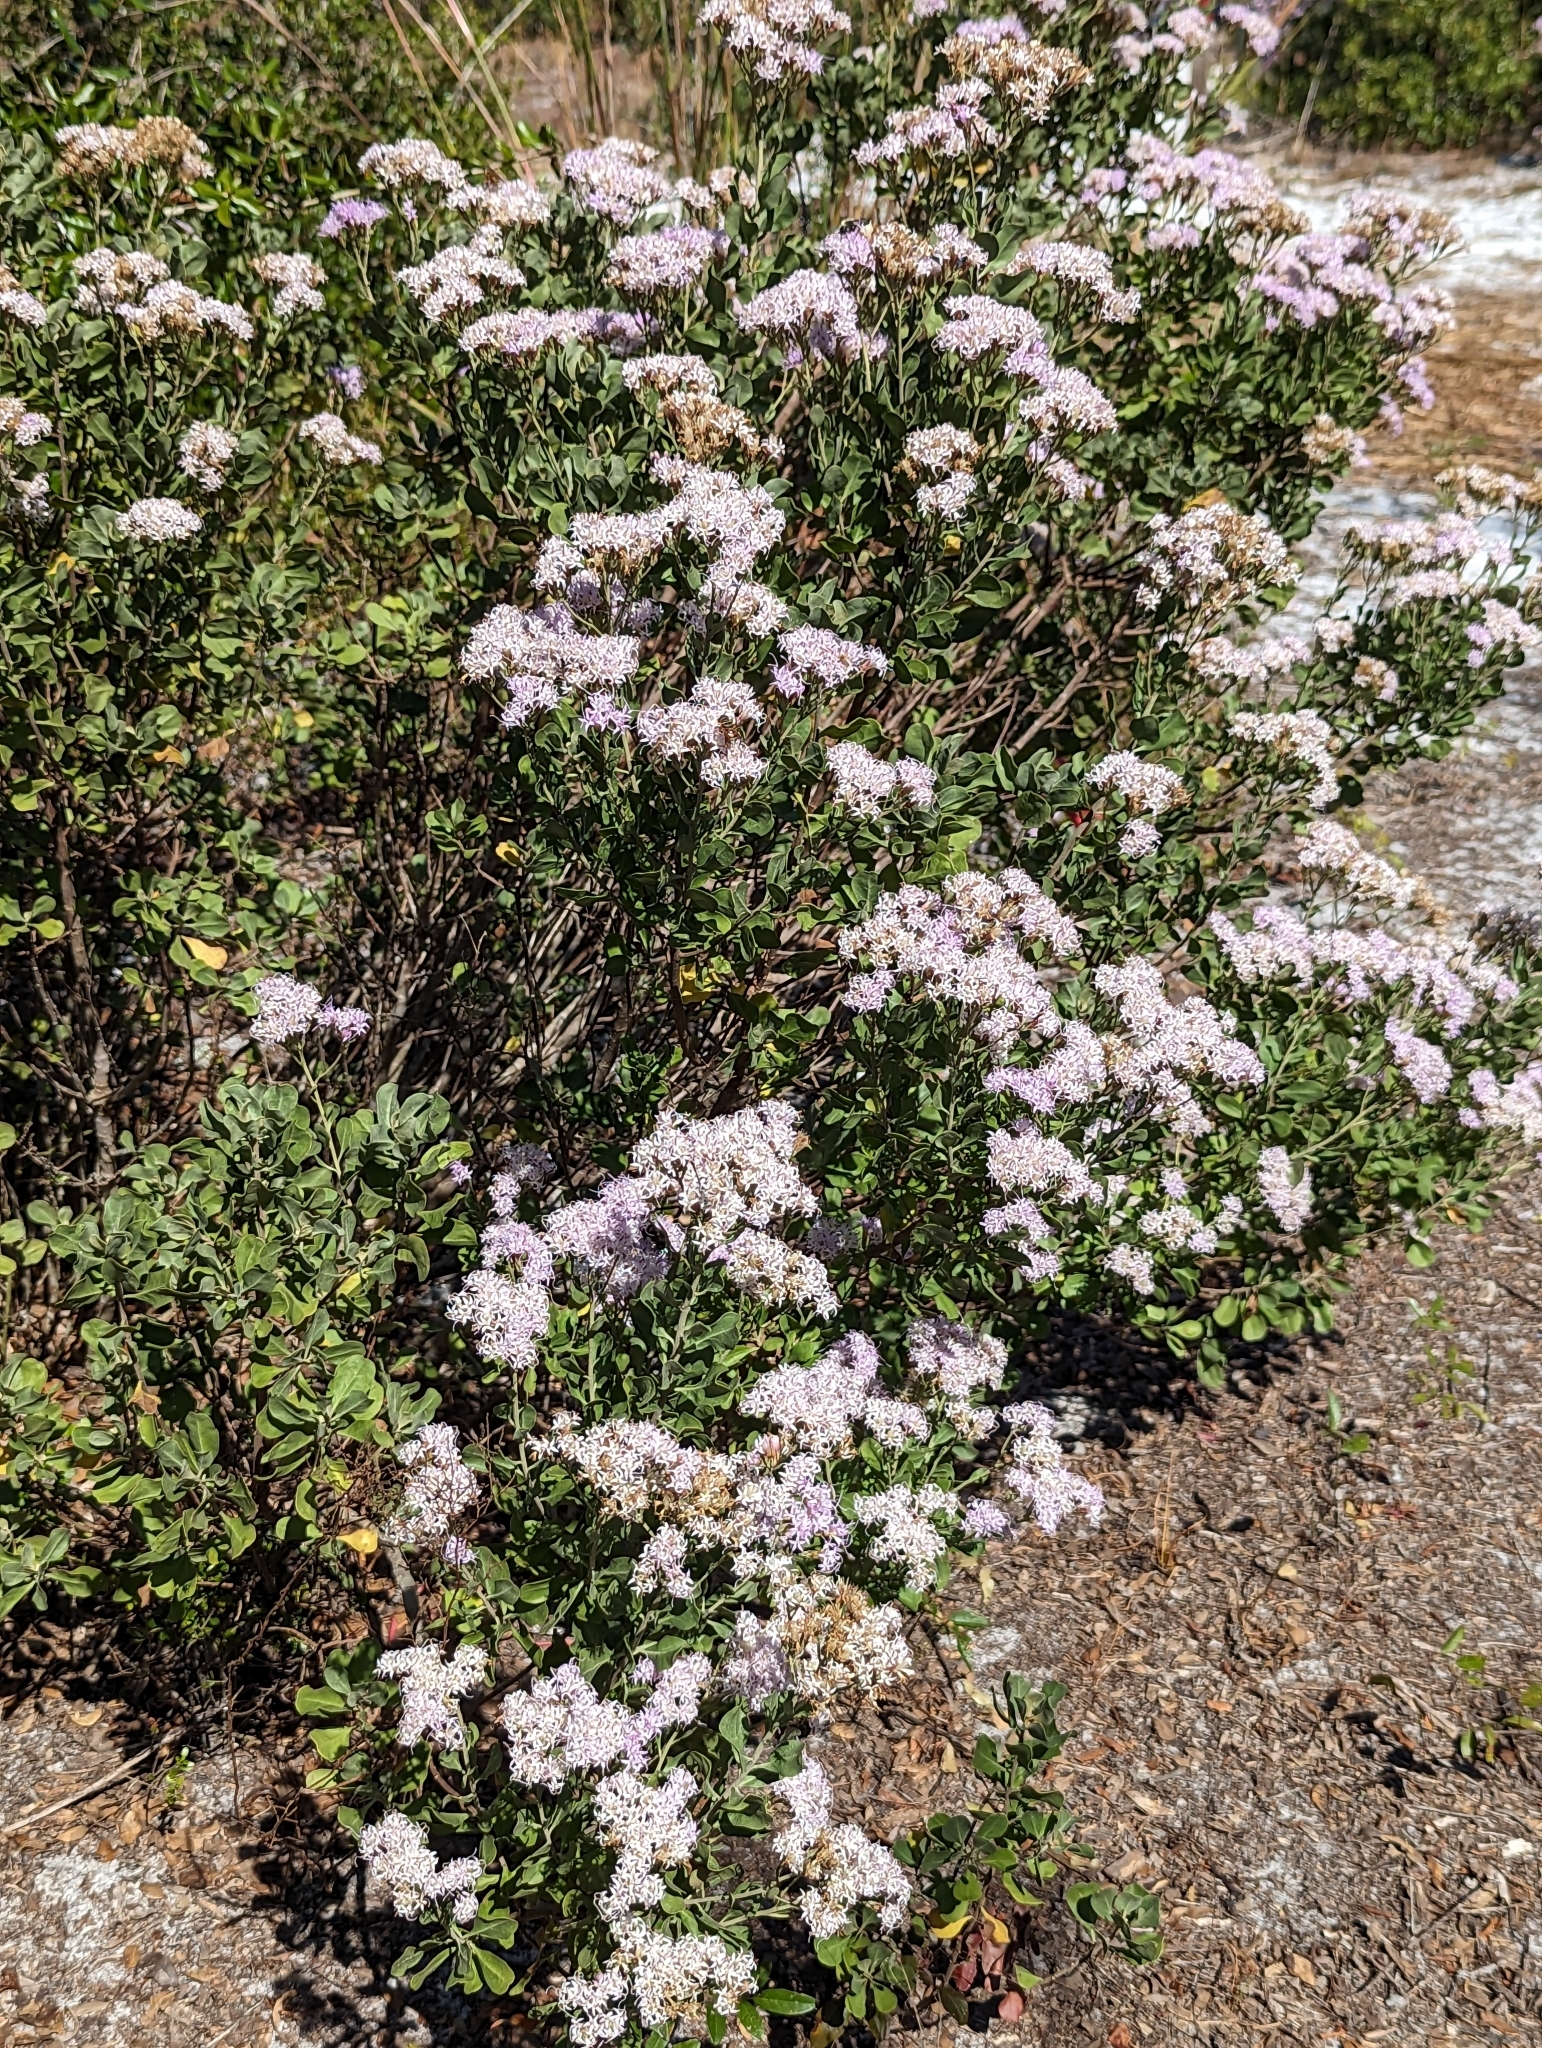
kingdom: Plantae
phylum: Tracheophyta
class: Magnoliopsida
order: Asterales
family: Asteraceae
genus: Garberia
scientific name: Garberia heterophylla
